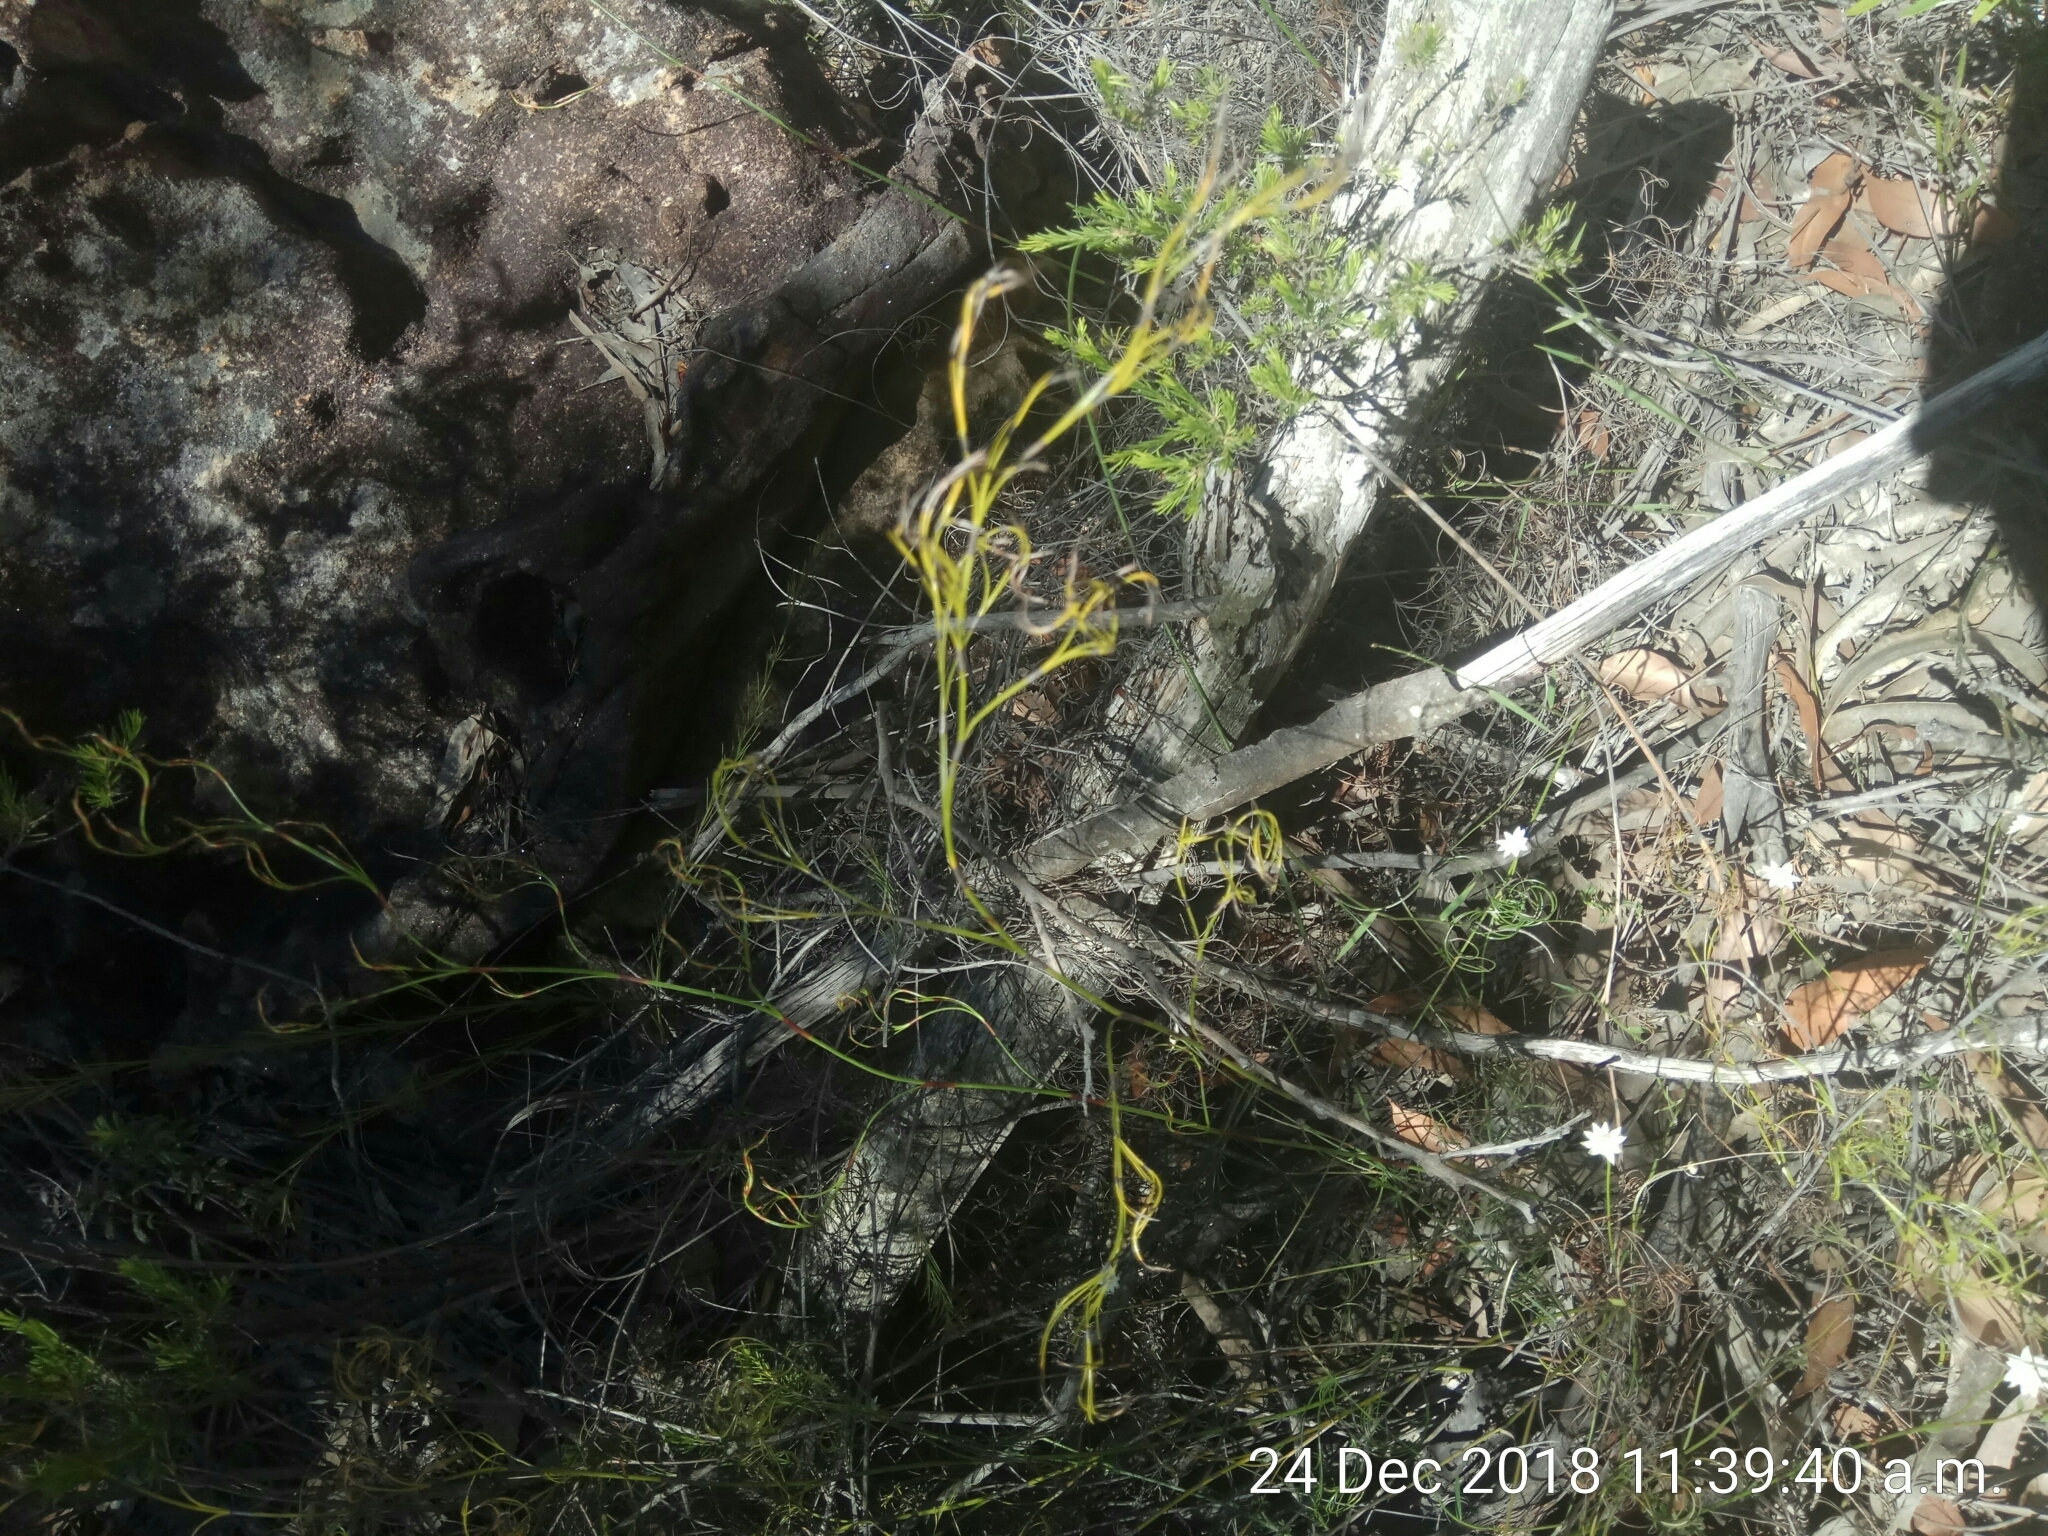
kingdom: Plantae
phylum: Tracheophyta
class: Liliopsida
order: Poales
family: Cyperaceae
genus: Caustis
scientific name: Caustis flexuosa
